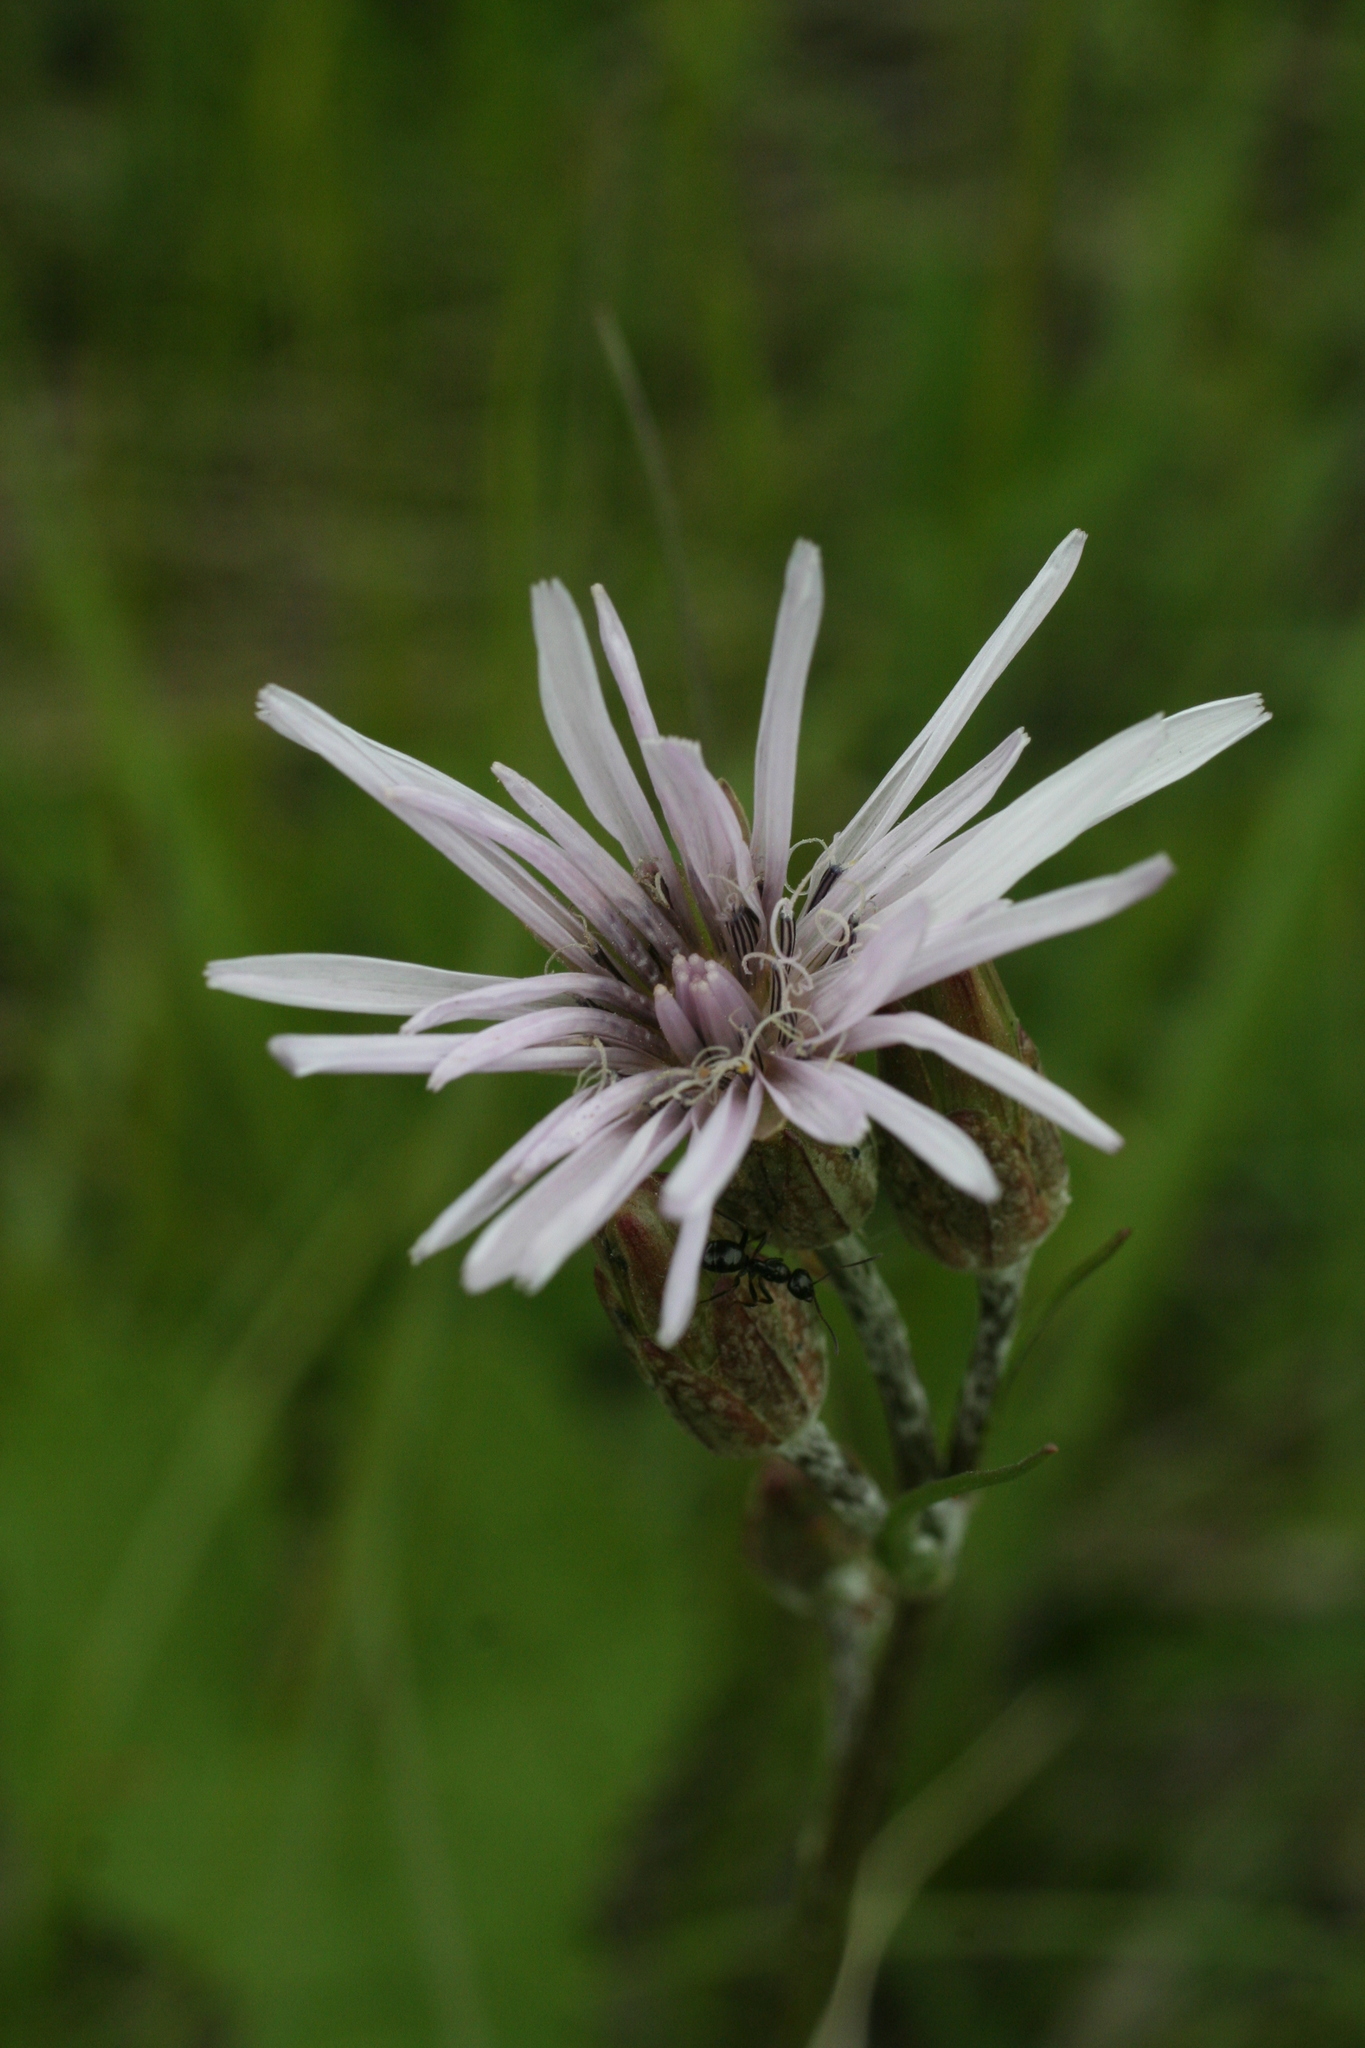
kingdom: Plantae
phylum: Tracheophyta
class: Magnoliopsida
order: Asterales
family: Asteraceae
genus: Scorzonera
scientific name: Scorzonera purpurea
